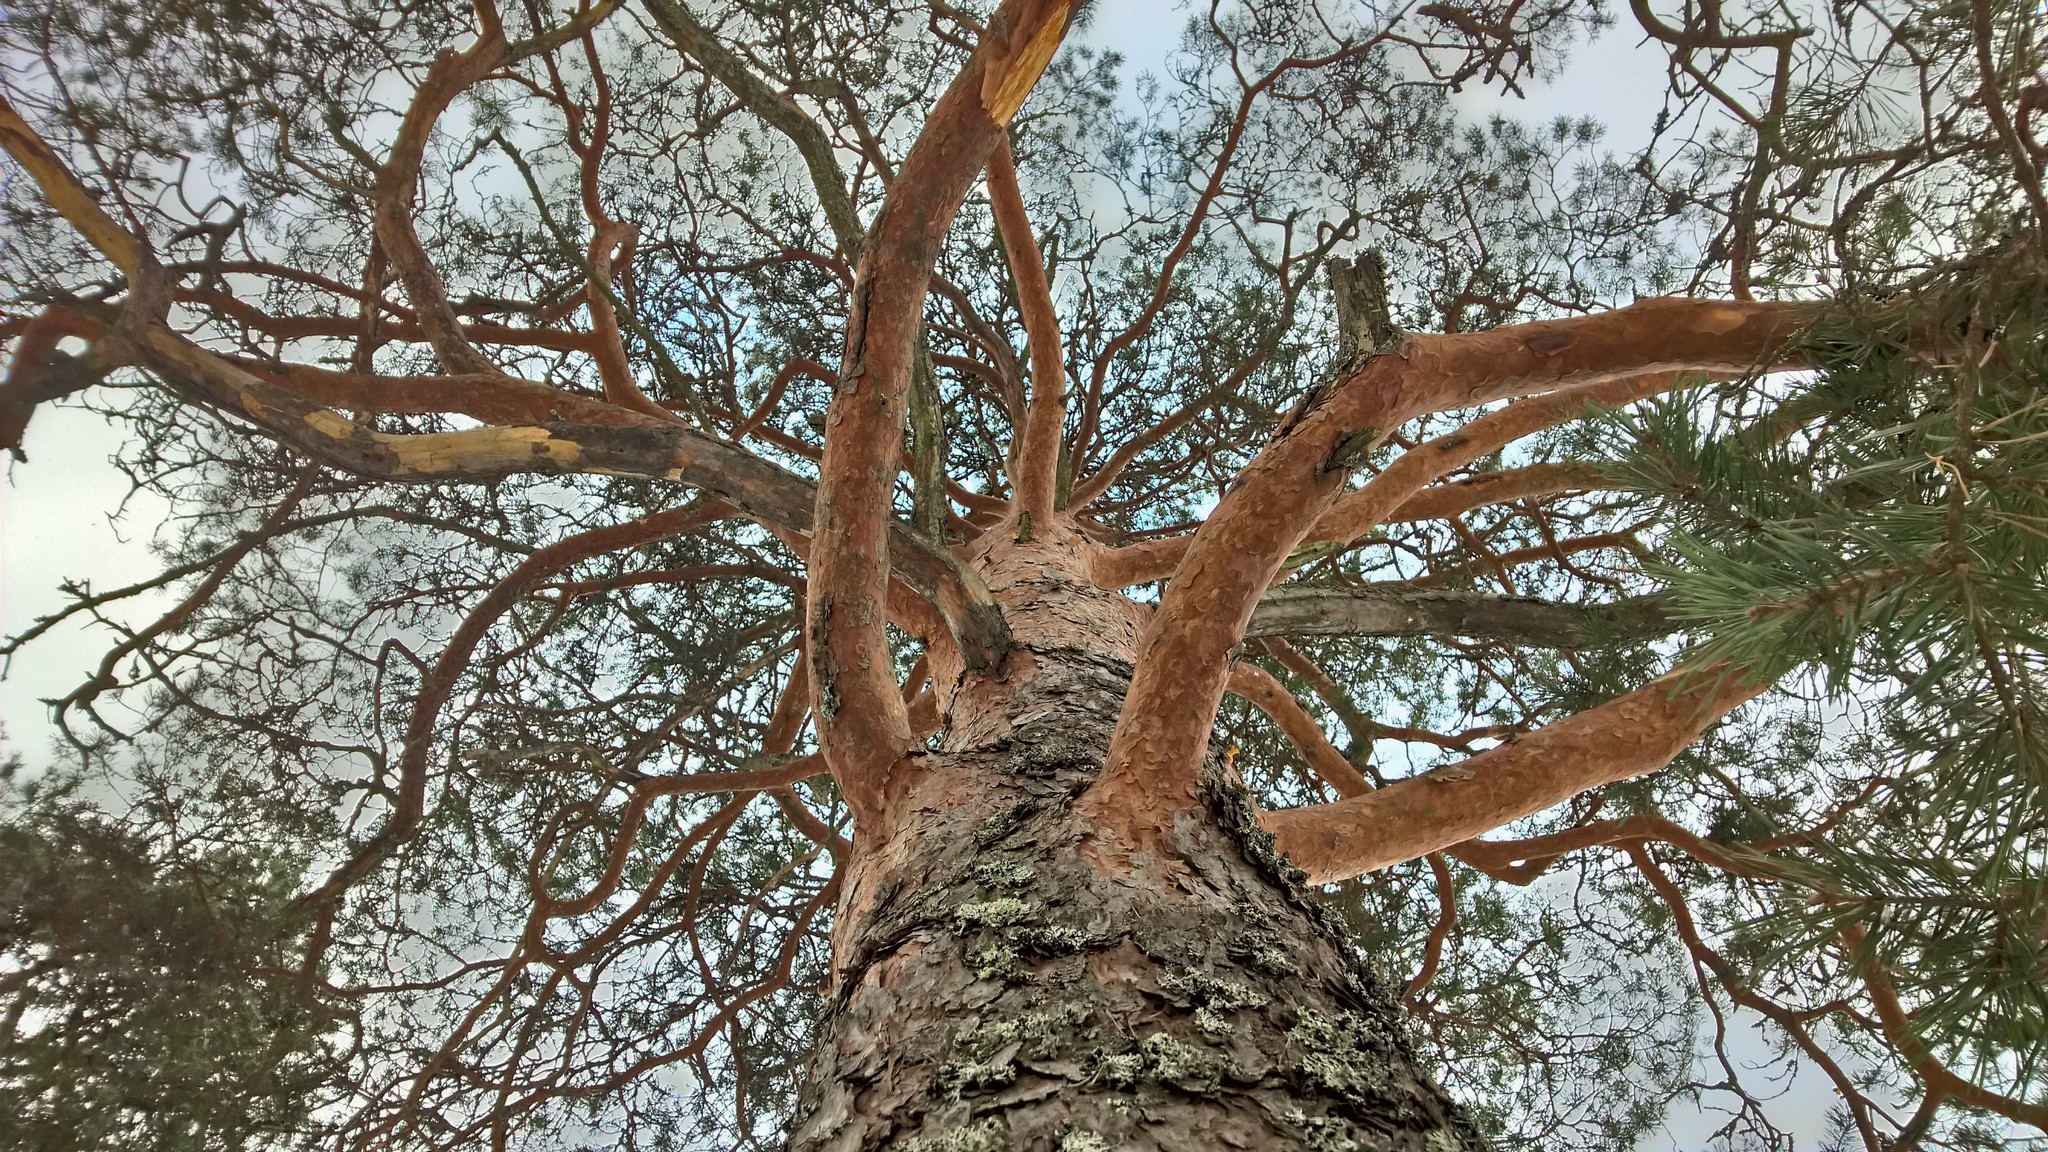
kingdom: Plantae
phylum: Tracheophyta
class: Pinopsida
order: Pinales
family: Pinaceae
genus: Pinus
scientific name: Pinus sylvestris
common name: Scots pine
